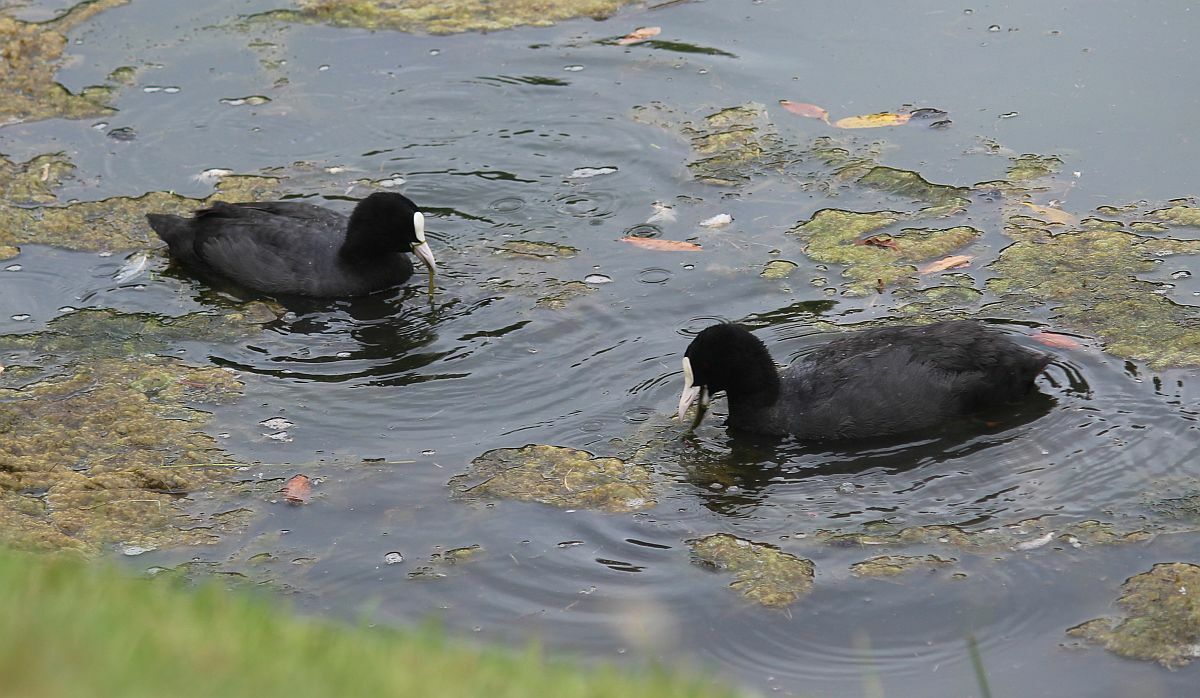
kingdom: Animalia
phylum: Chordata
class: Aves
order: Gruiformes
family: Rallidae
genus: Fulica
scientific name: Fulica atra
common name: Eurasian coot
